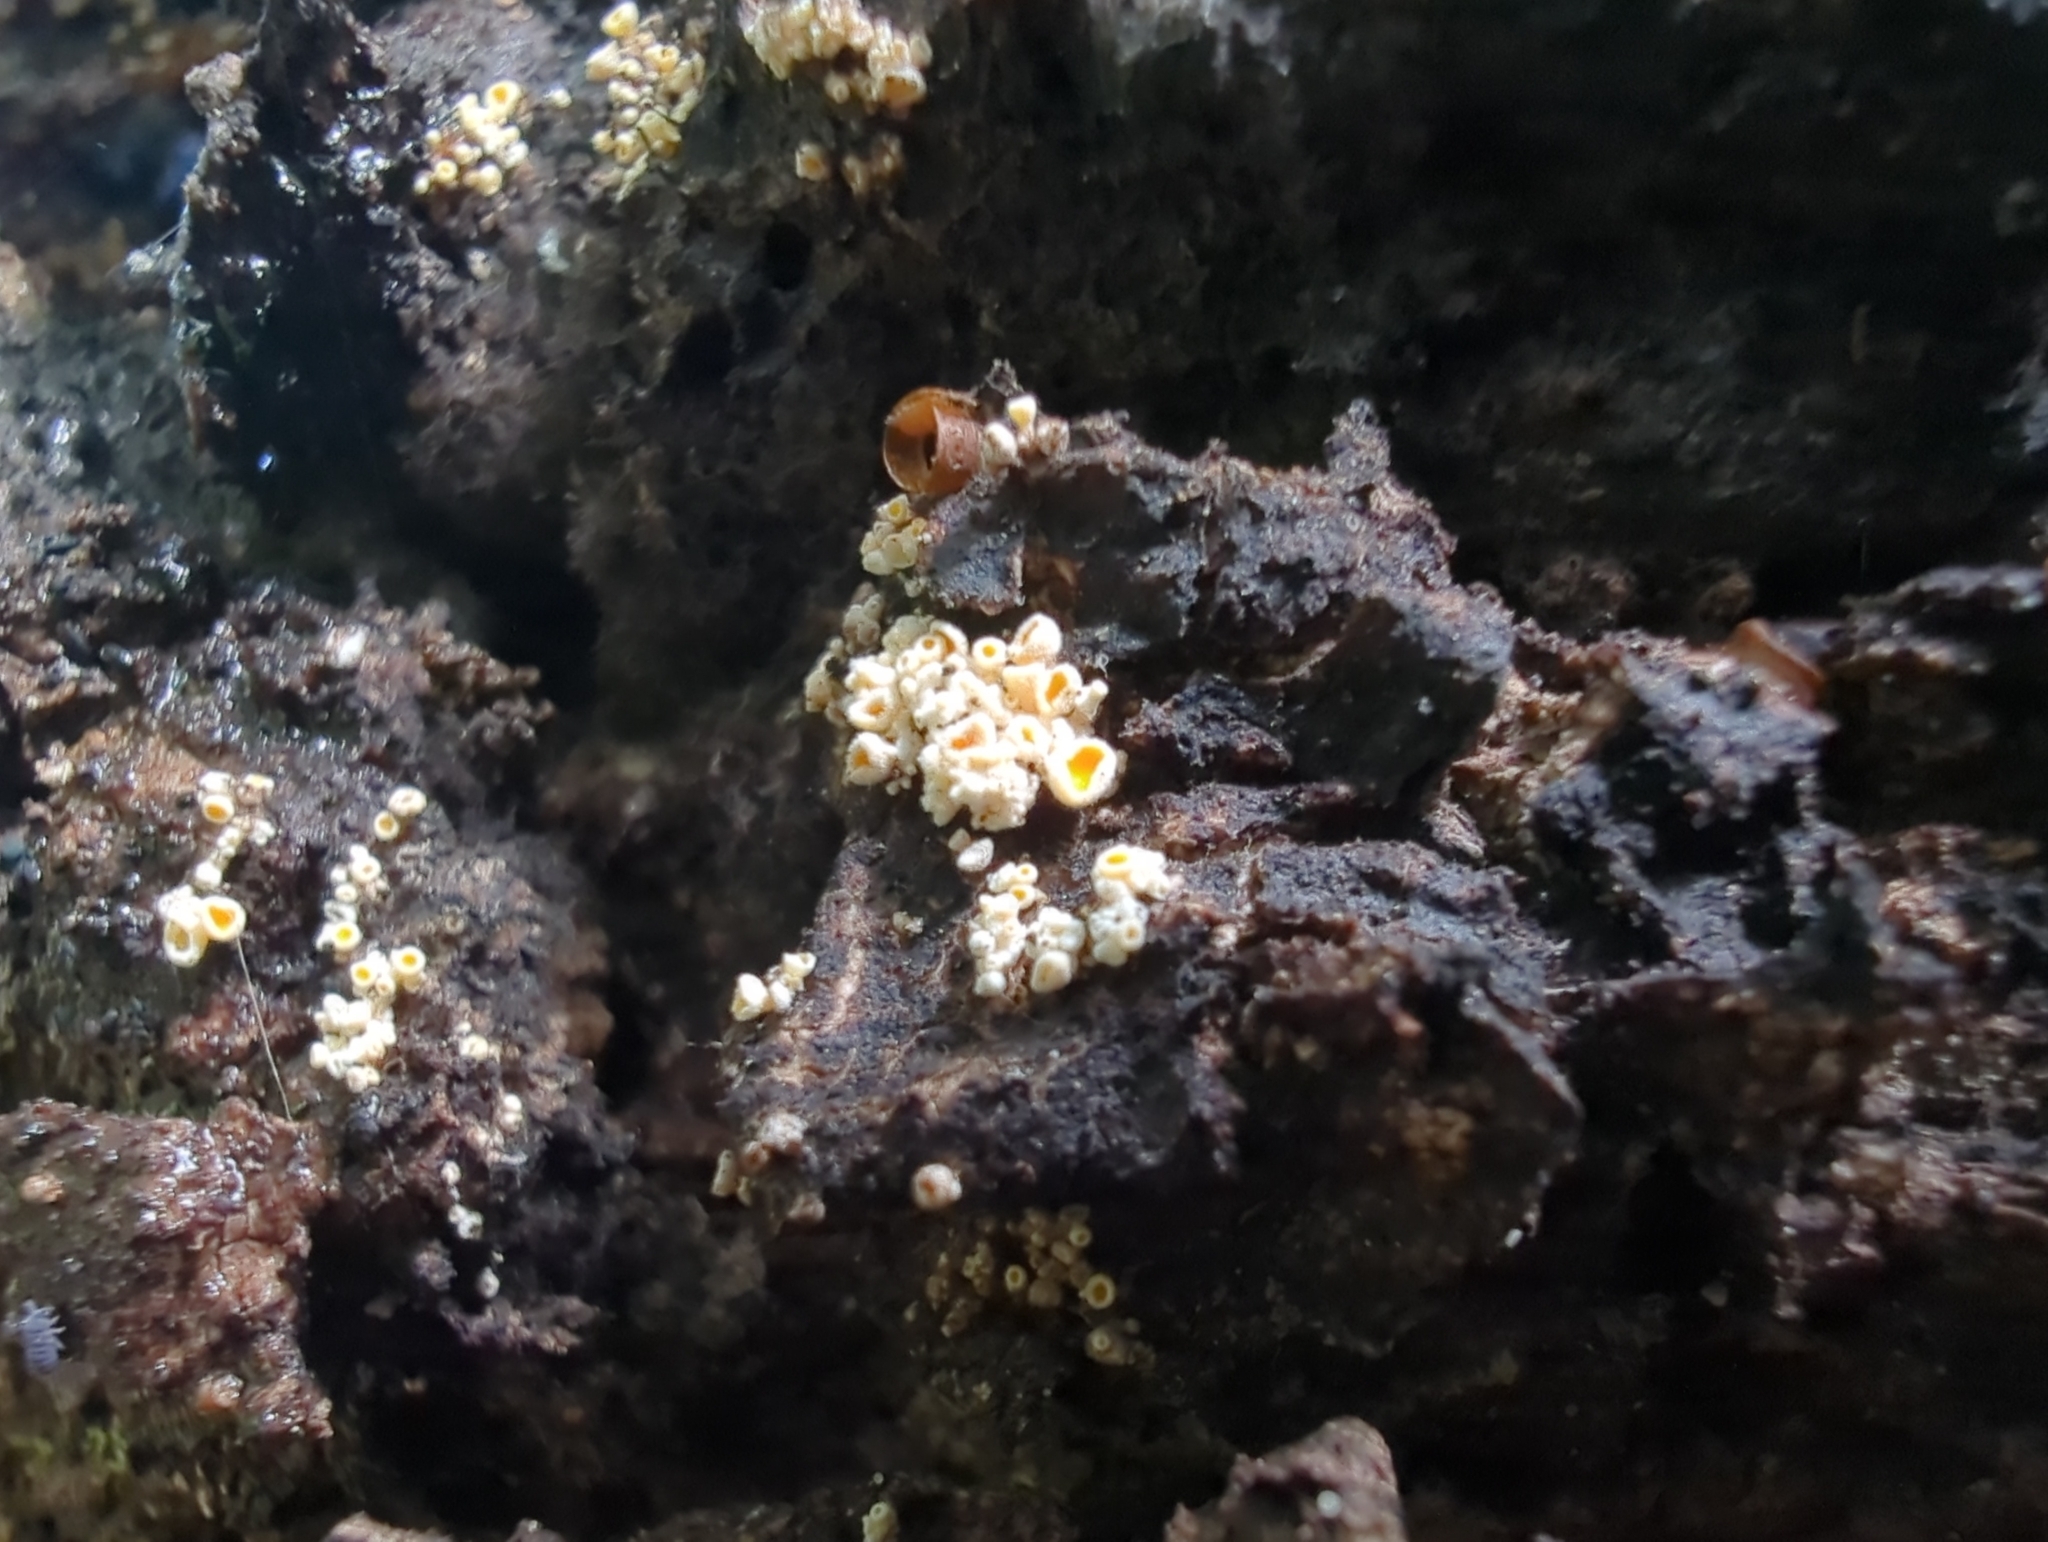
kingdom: Fungi
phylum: Ascomycota
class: Leotiomycetes
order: Helotiales
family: Lachnaceae
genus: Lachnellula
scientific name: Lachnellula resinaria
